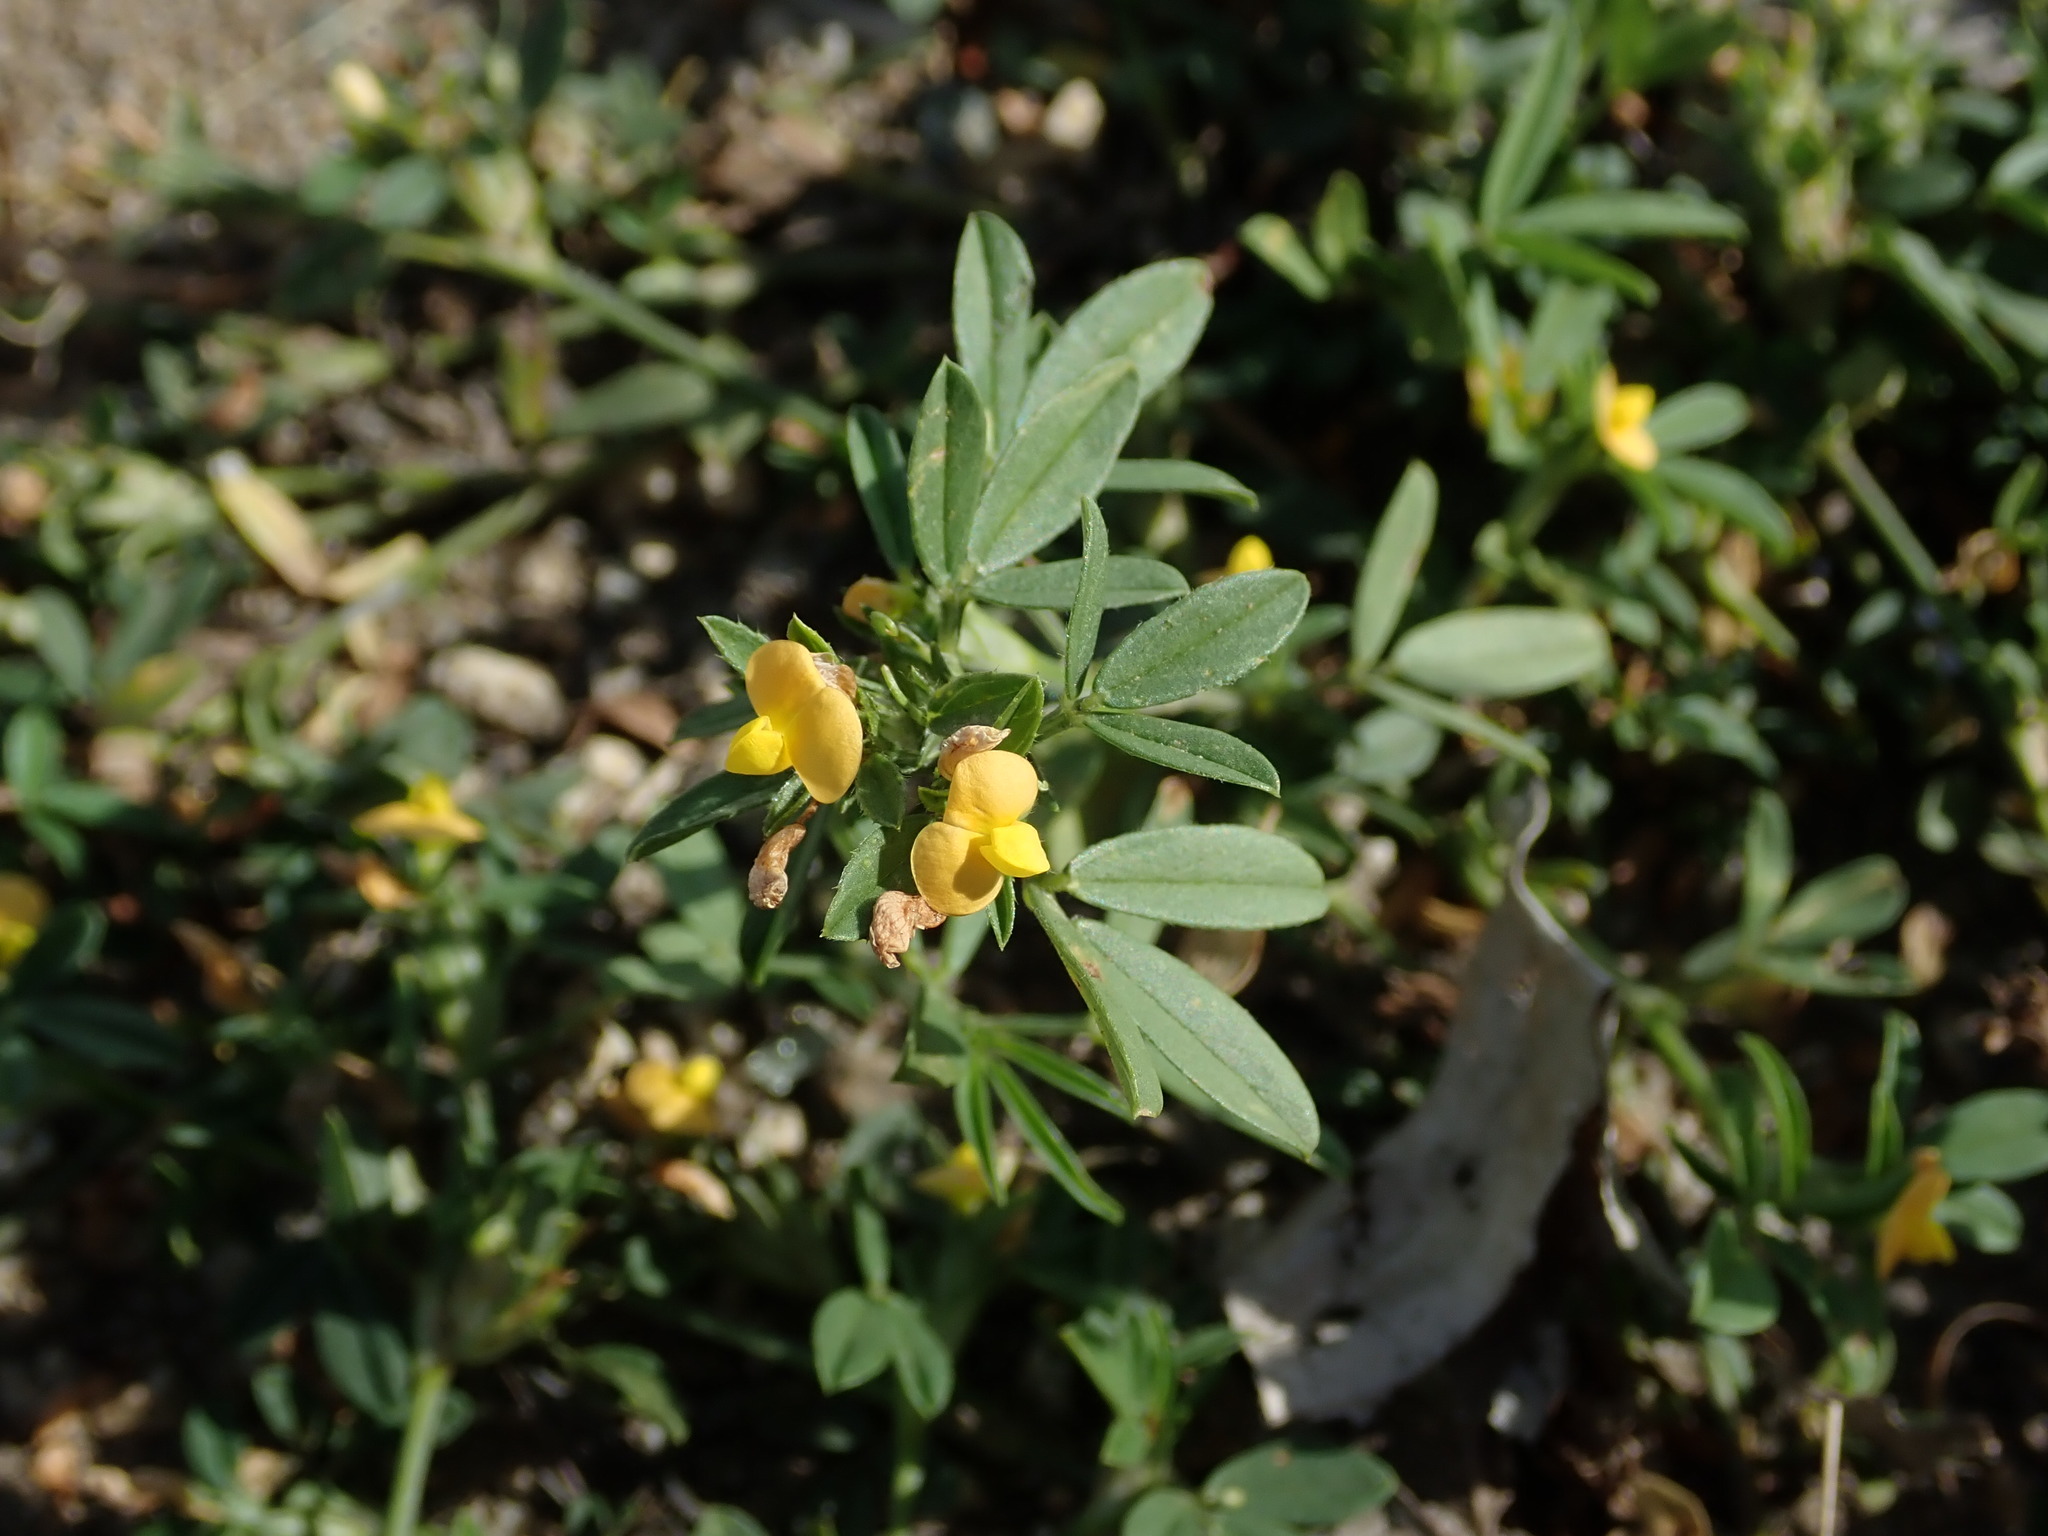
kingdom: Plantae
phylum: Tracheophyta
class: Magnoliopsida
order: Fabales
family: Fabaceae
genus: Stylosanthes
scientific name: Stylosanthes hamata
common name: Cheesytoes
